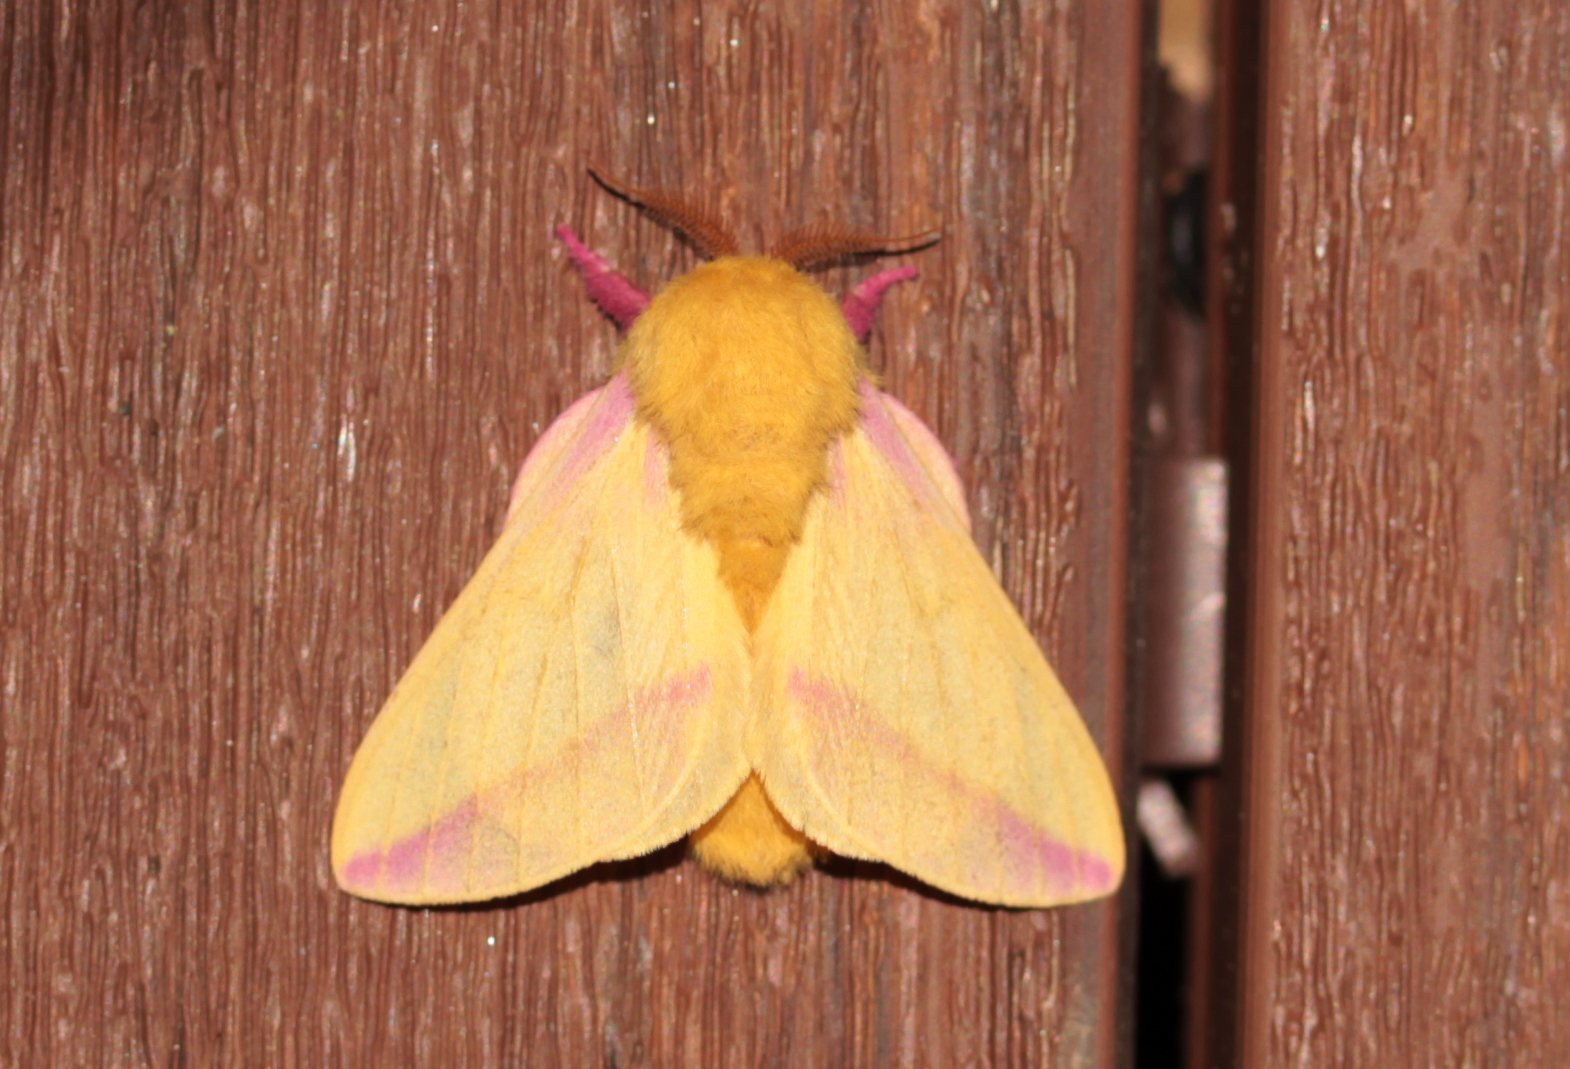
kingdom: Animalia
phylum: Arthropoda
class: Insecta
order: Lepidoptera
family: Saturniidae
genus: Dryocampa
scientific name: Dryocampa rubicunda
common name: Rosy maple moth
